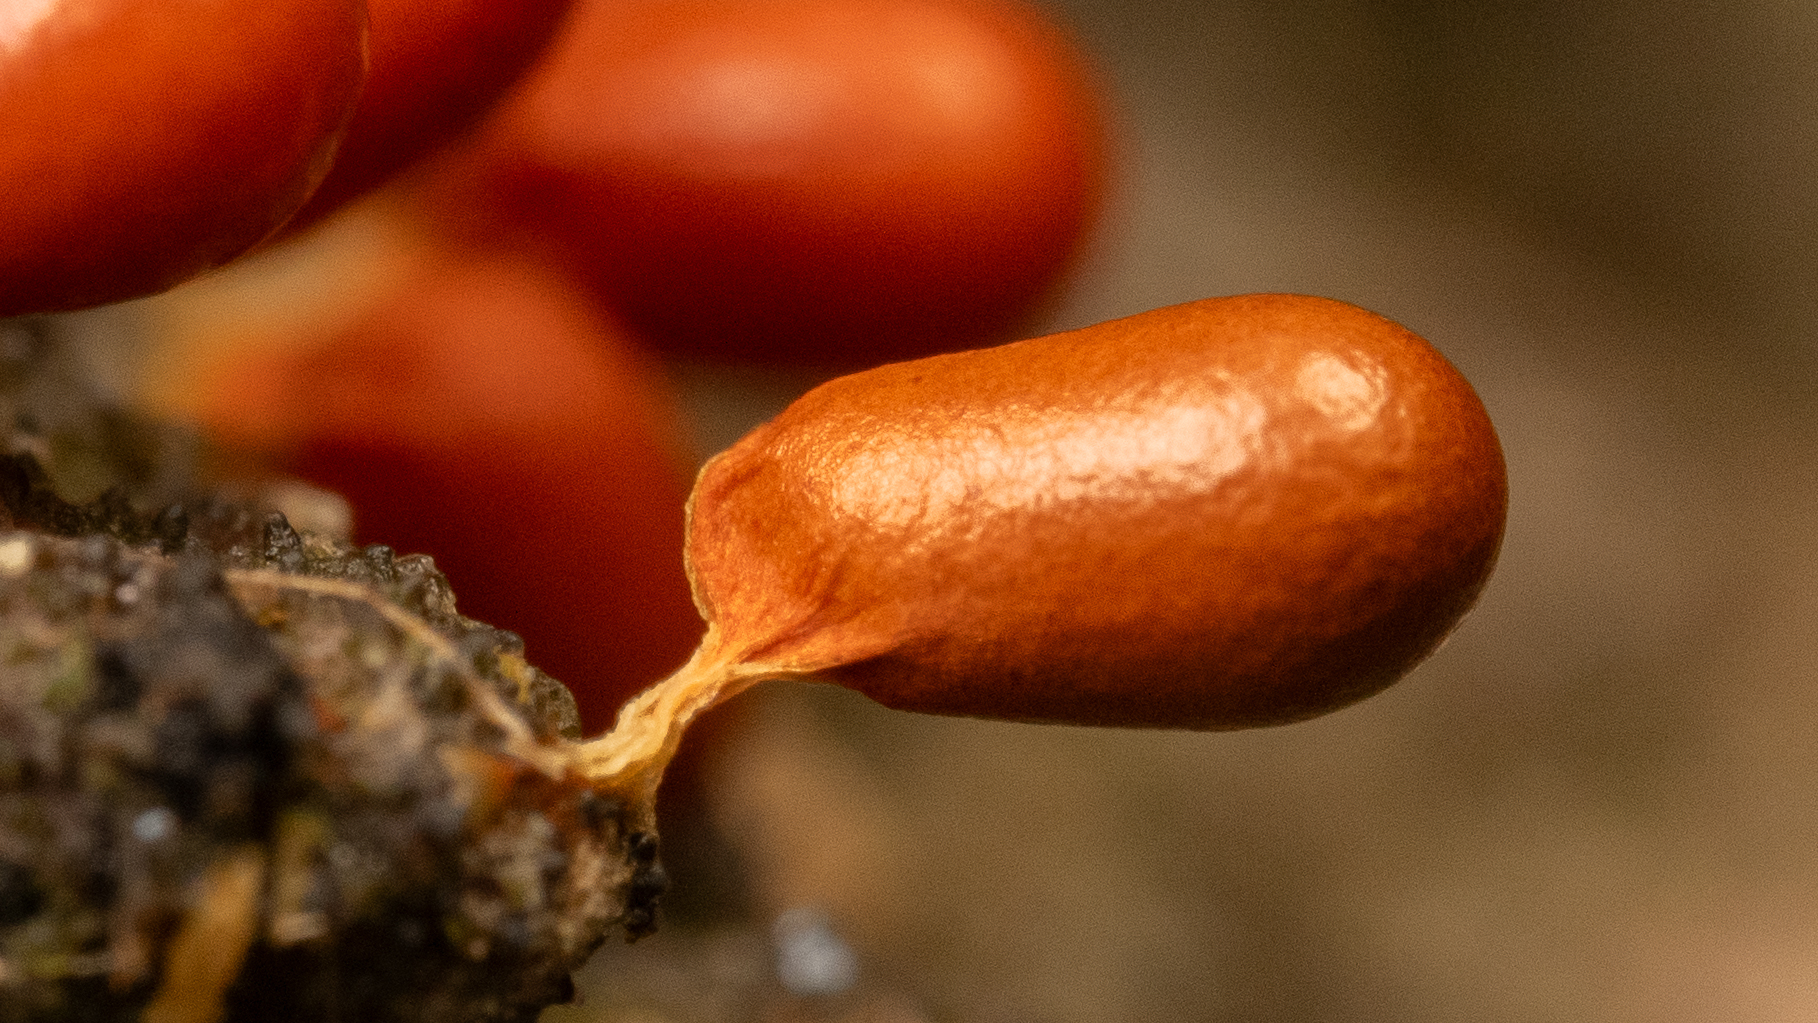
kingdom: Protozoa
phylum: Mycetozoa
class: Myxomycetes
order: Physarales
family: Physaraceae
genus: Leocarpus
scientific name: Leocarpus fragilis
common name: Insect-egg slime
